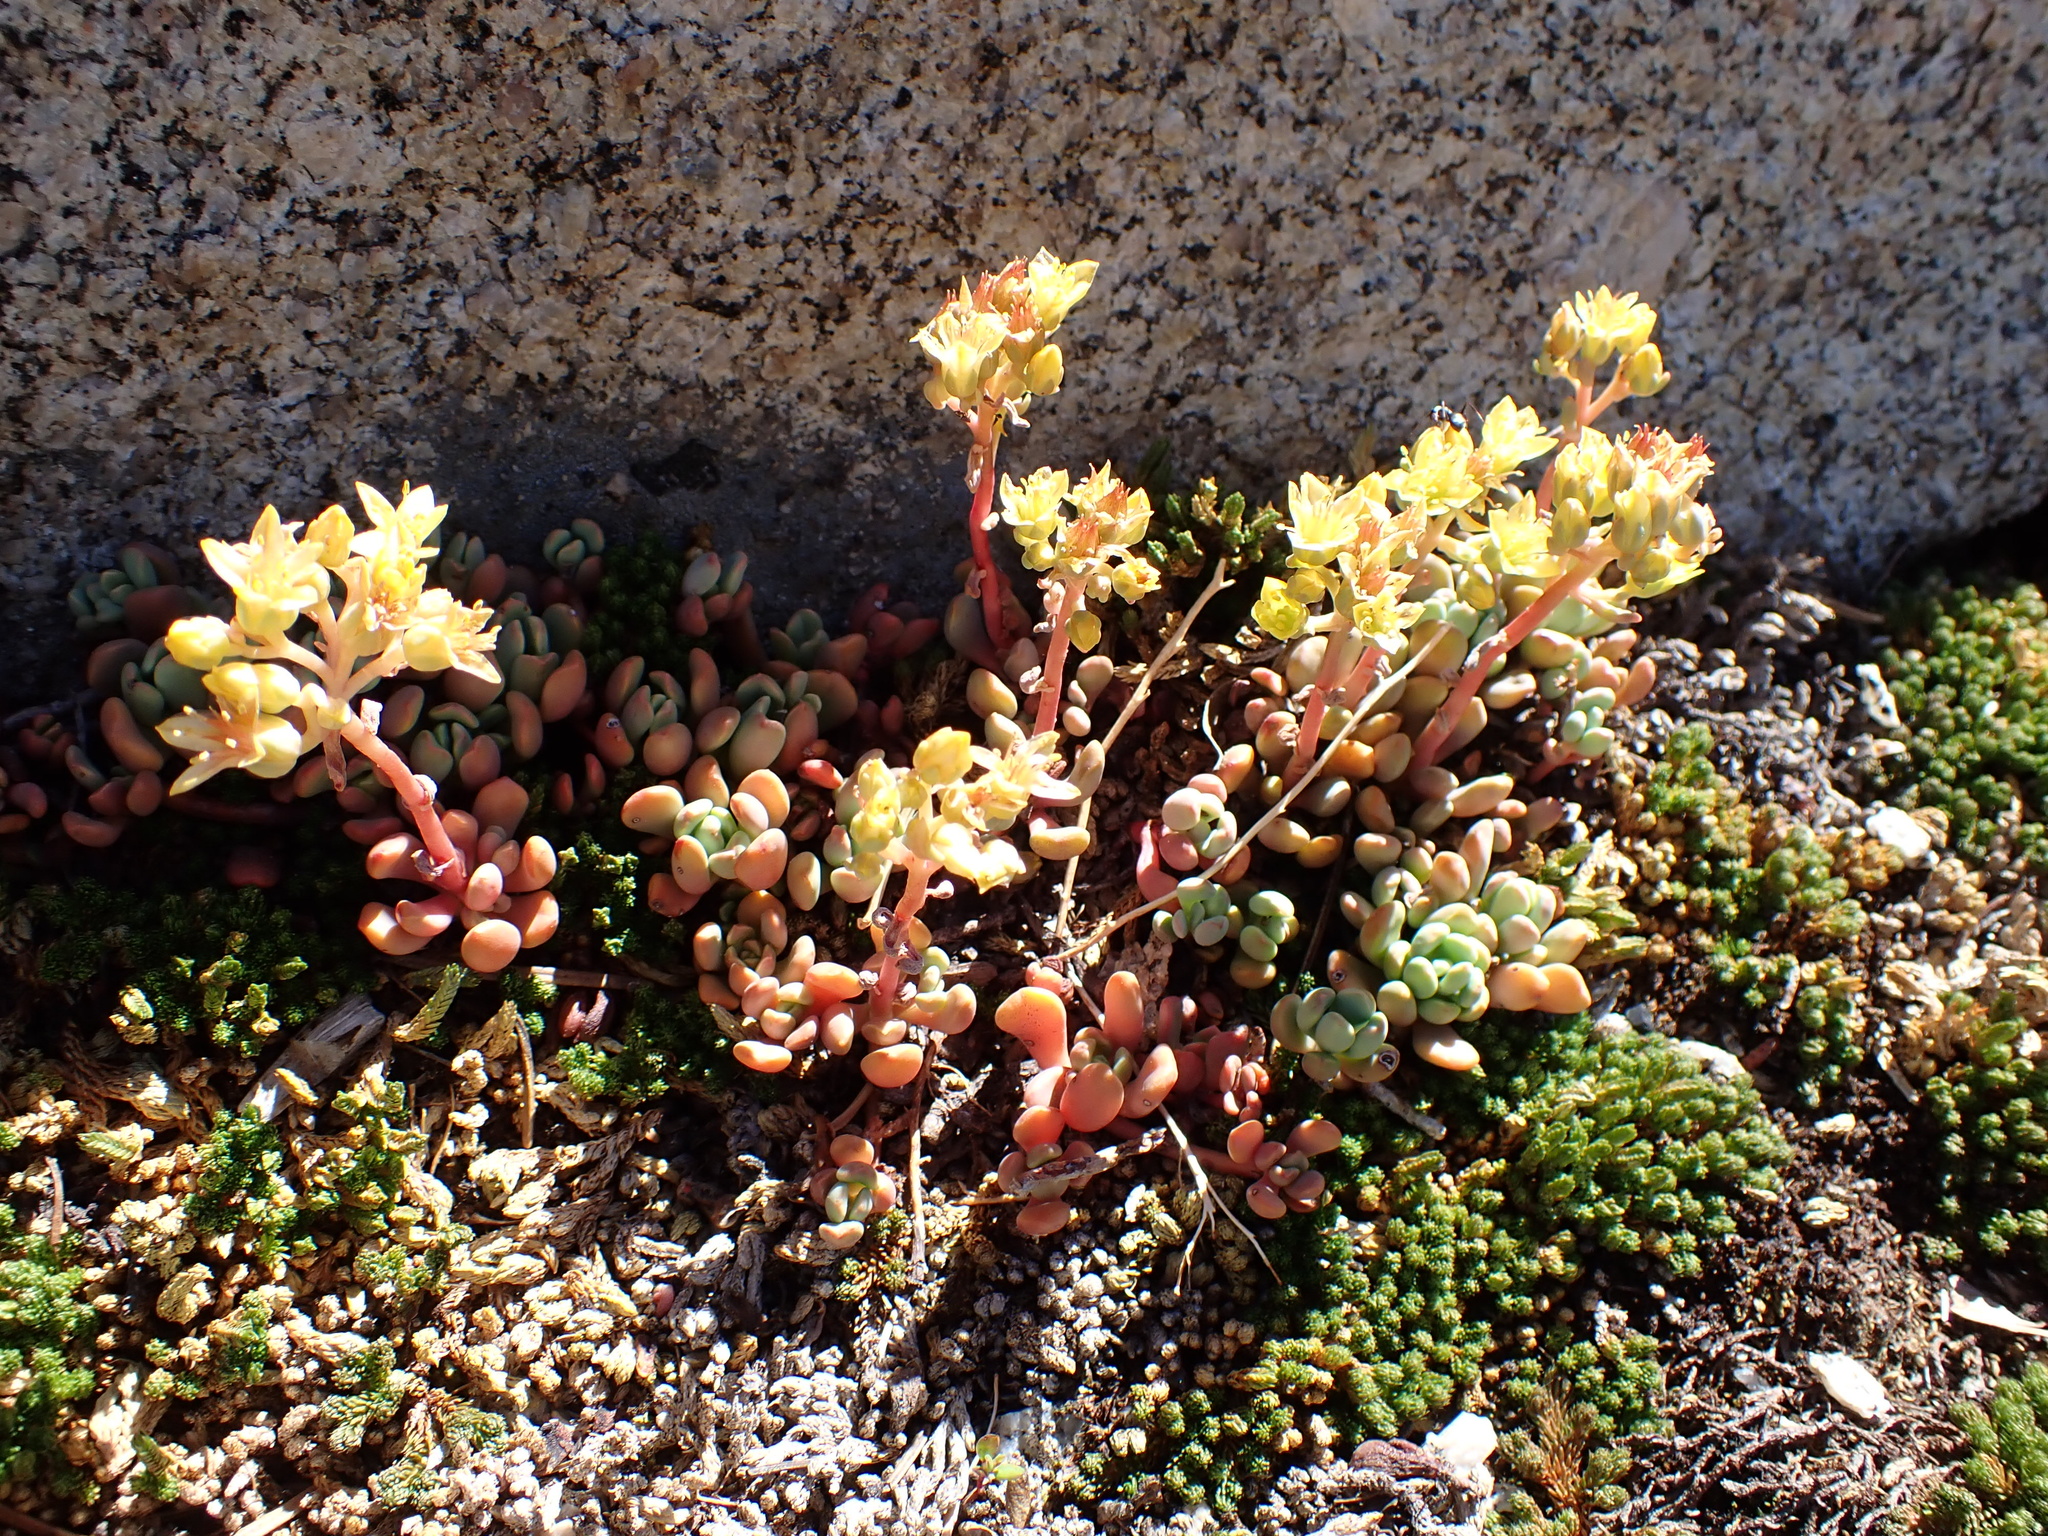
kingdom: Plantae
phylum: Tracheophyta
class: Magnoliopsida
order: Saxifragales
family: Crassulaceae
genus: Sedum
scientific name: Sedum obtusatum
